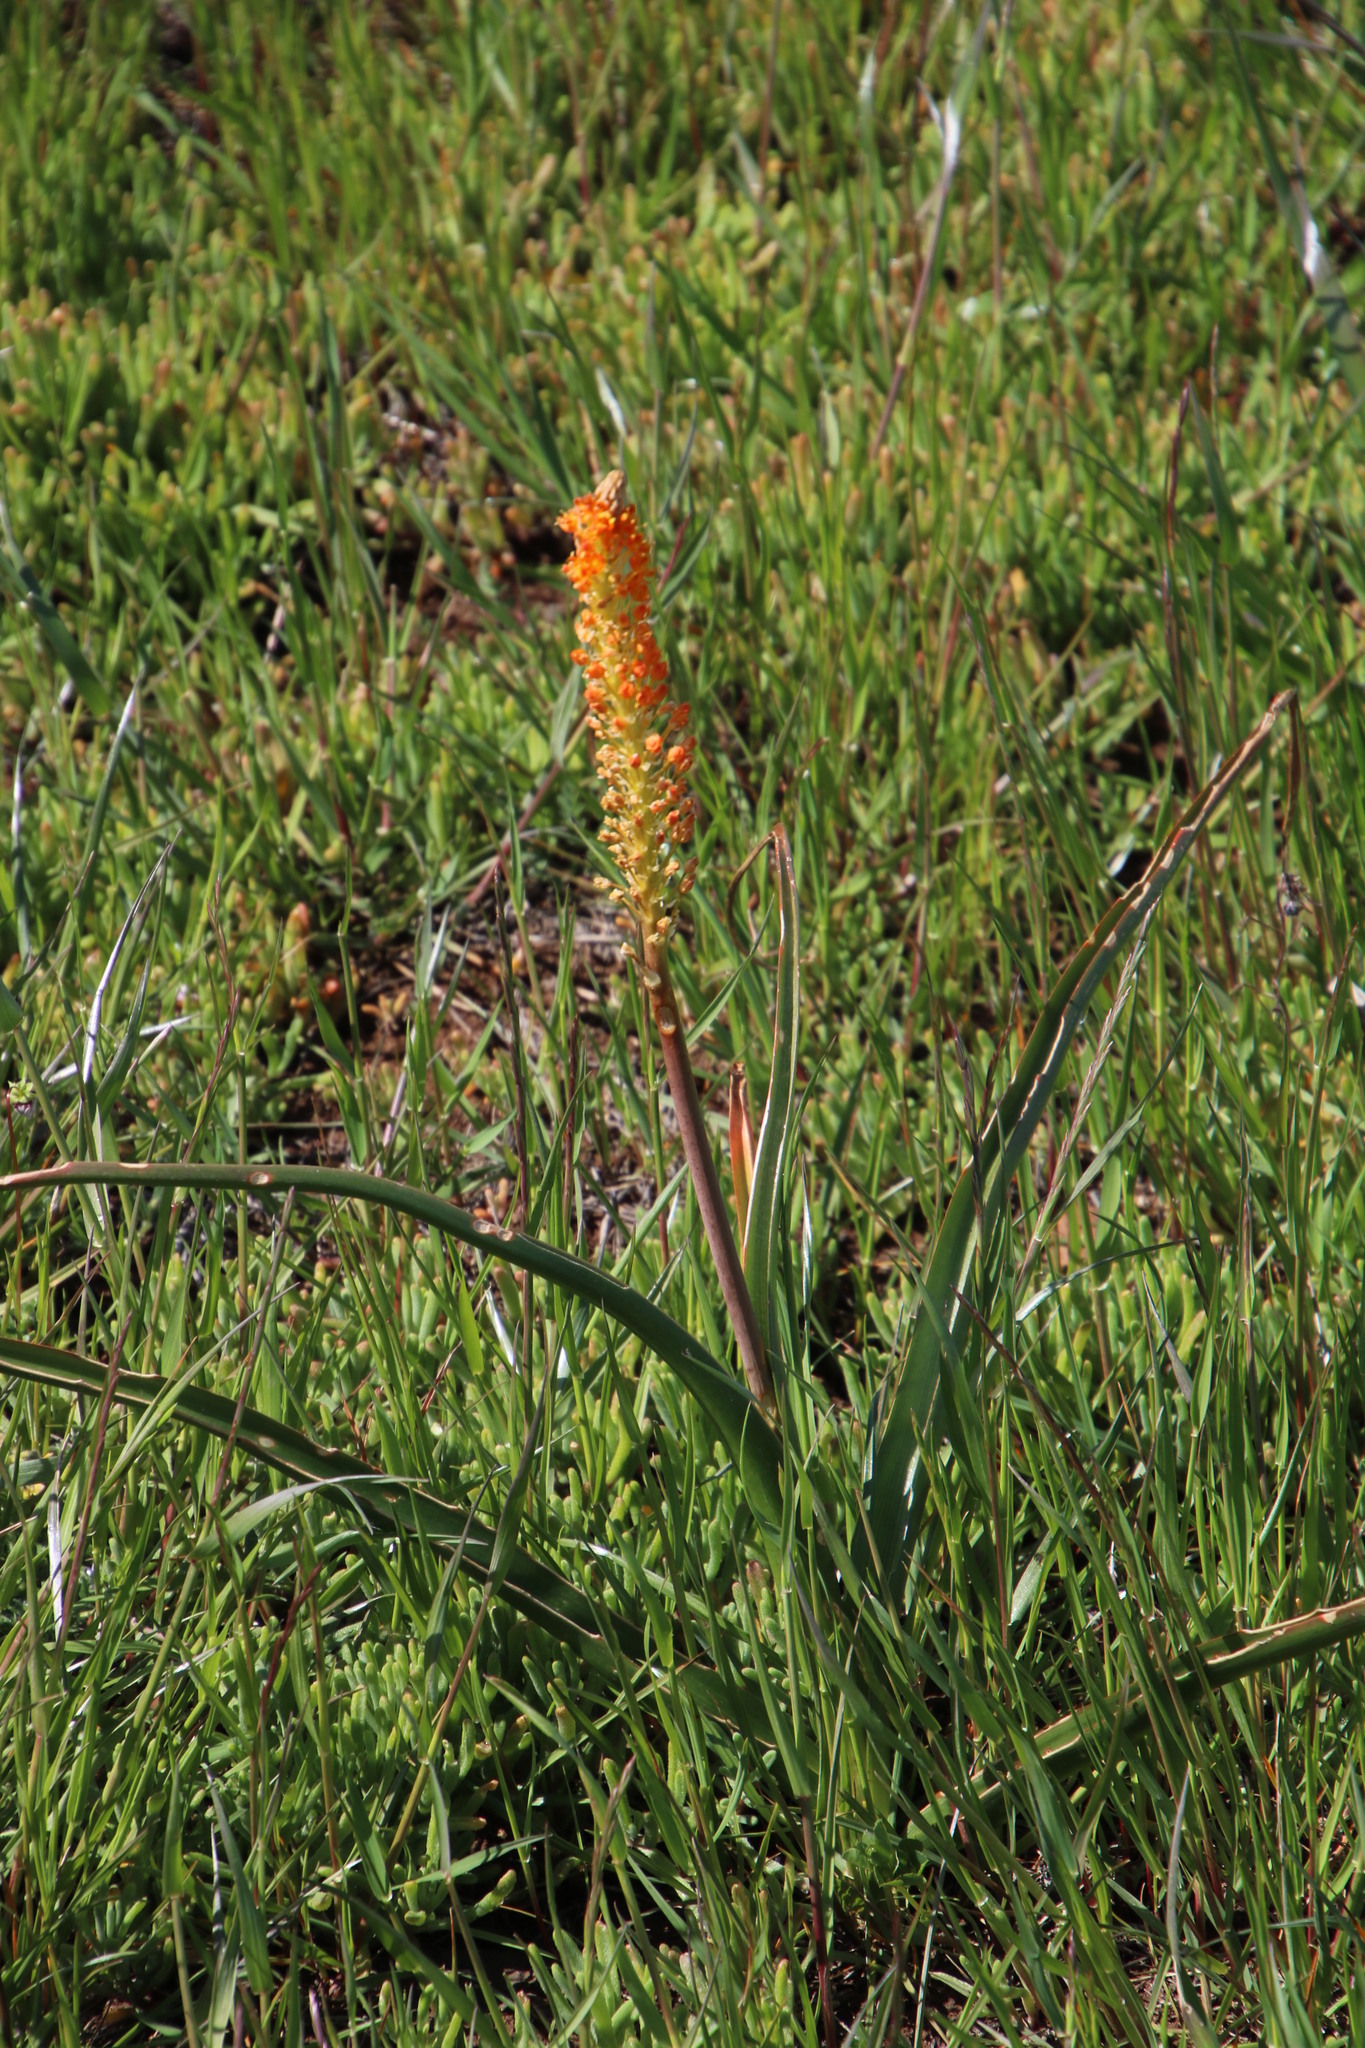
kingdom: Plantae
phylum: Tracheophyta
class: Liliopsida
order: Asparagales
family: Asphodelaceae
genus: Bulbinella
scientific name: Bulbinella latifolia
